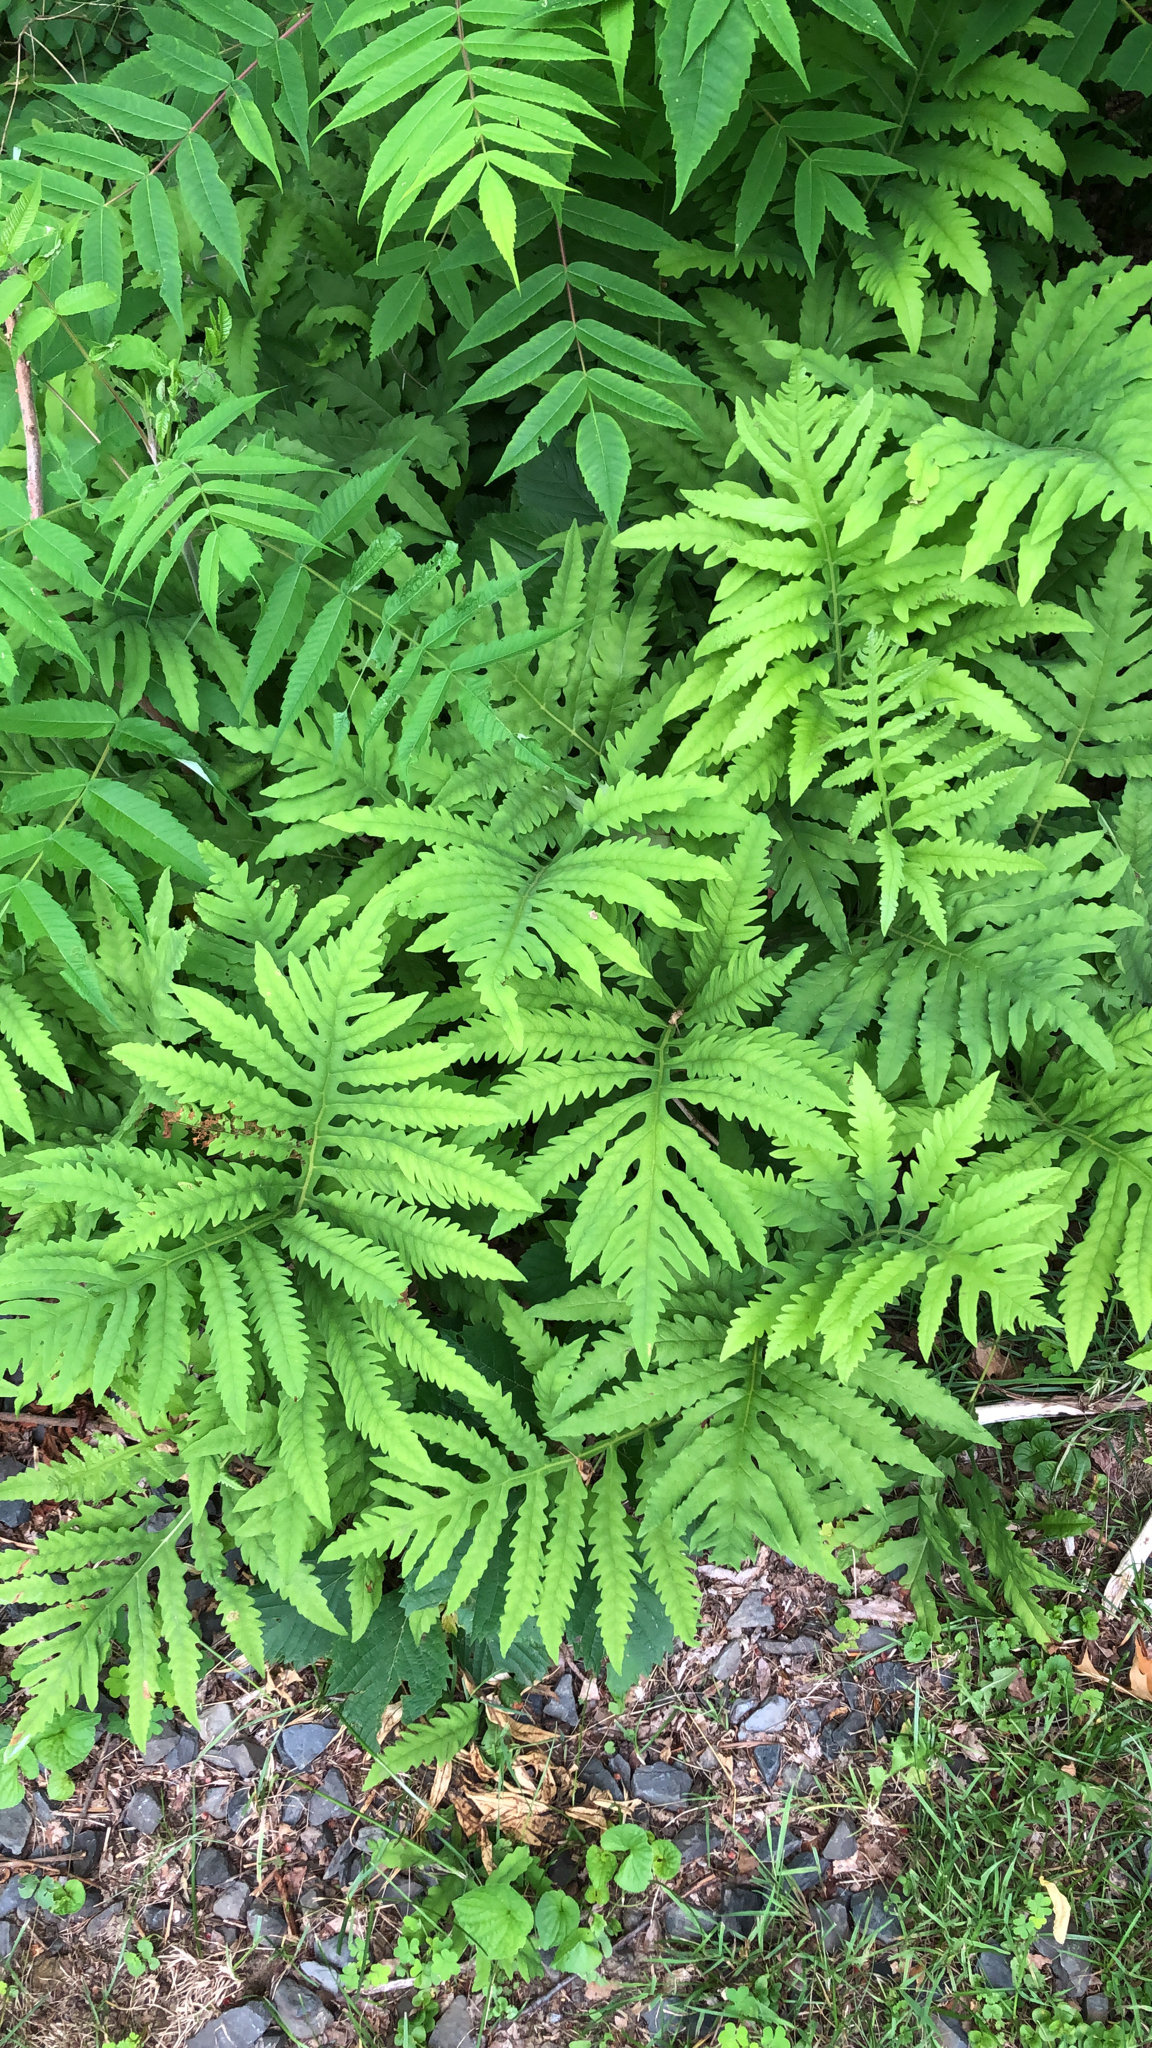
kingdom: Plantae
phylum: Tracheophyta
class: Polypodiopsida
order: Polypodiales
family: Onocleaceae
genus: Onoclea
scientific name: Onoclea sensibilis
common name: Sensitive fern
